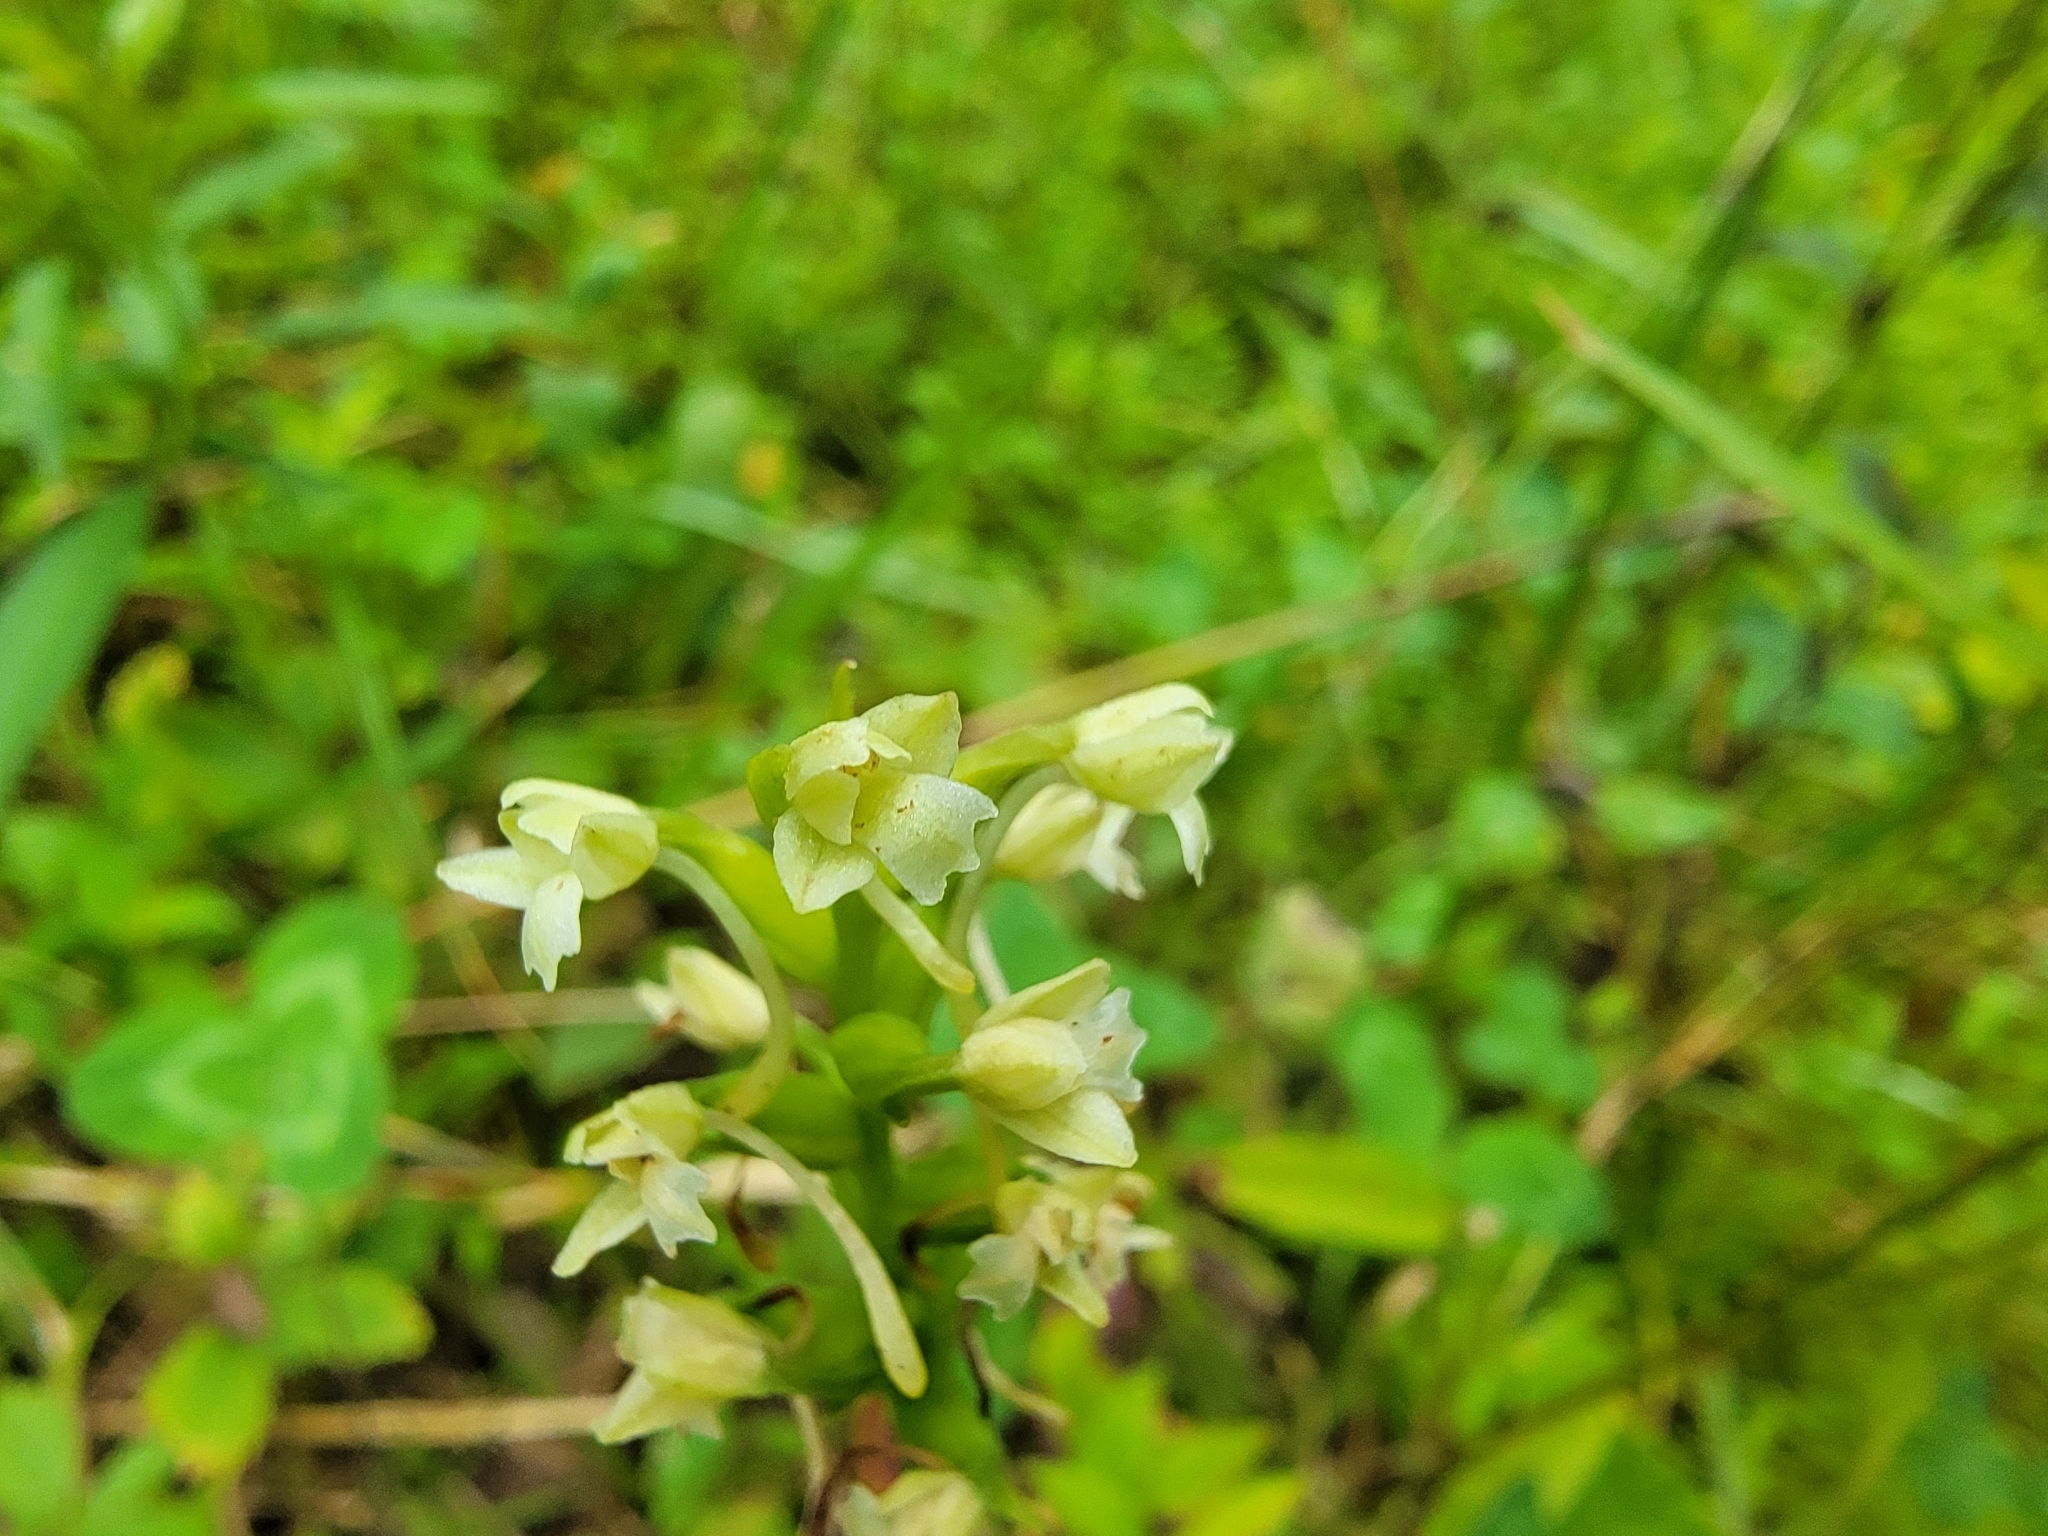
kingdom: Plantae
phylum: Tracheophyta
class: Liliopsida
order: Asparagales
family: Orchidaceae
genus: Platanthera
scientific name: Platanthera clavellata
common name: Club-spur orchid
